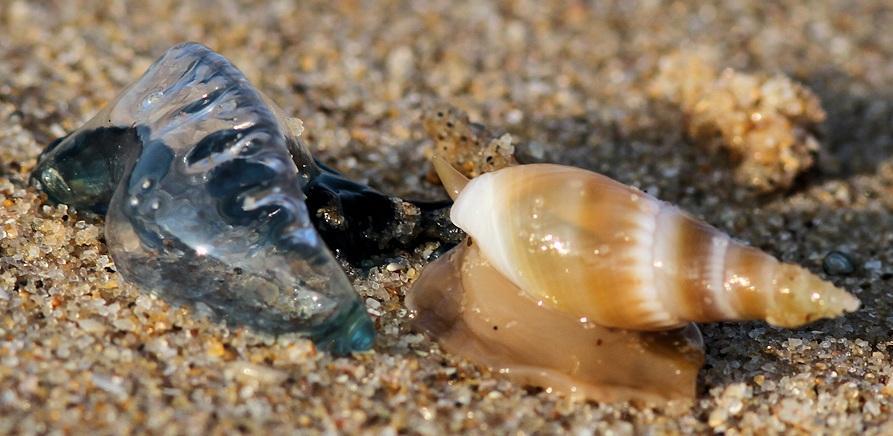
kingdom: Animalia
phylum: Mollusca
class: Gastropoda
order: Neogastropoda
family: Nassariidae
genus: Bullia
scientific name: Bullia mozambicensis
